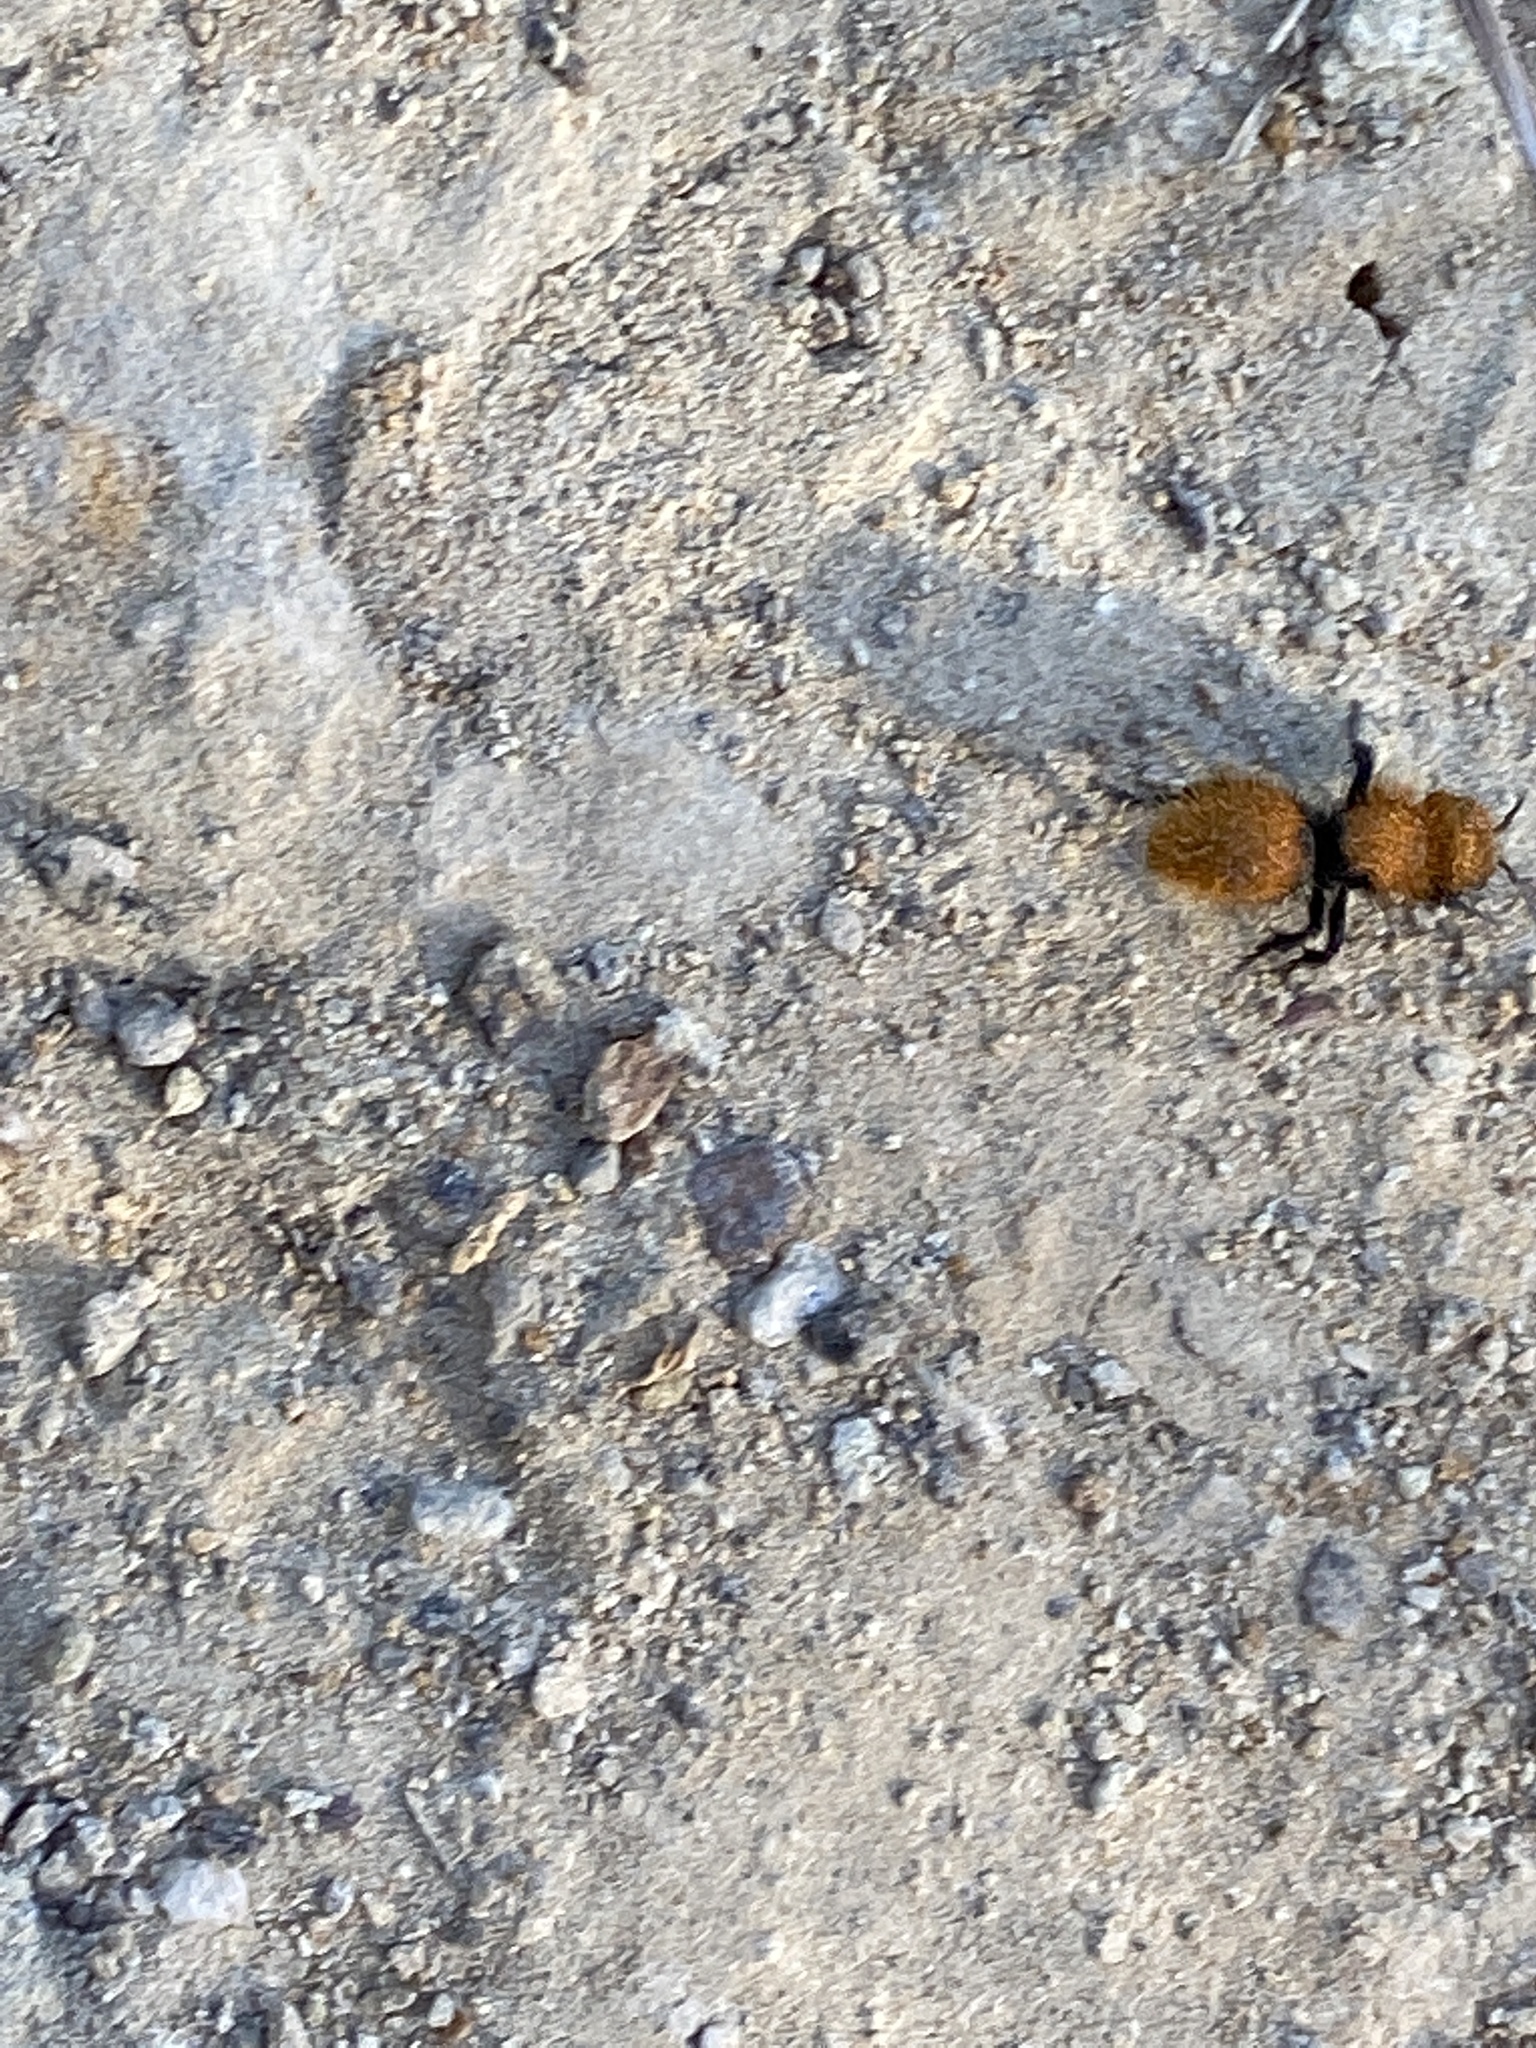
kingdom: Animalia
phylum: Arthropoda
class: Insecta
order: Hymenoptera
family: Mutillidae
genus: Dasymutilla
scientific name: Dasymutilla
